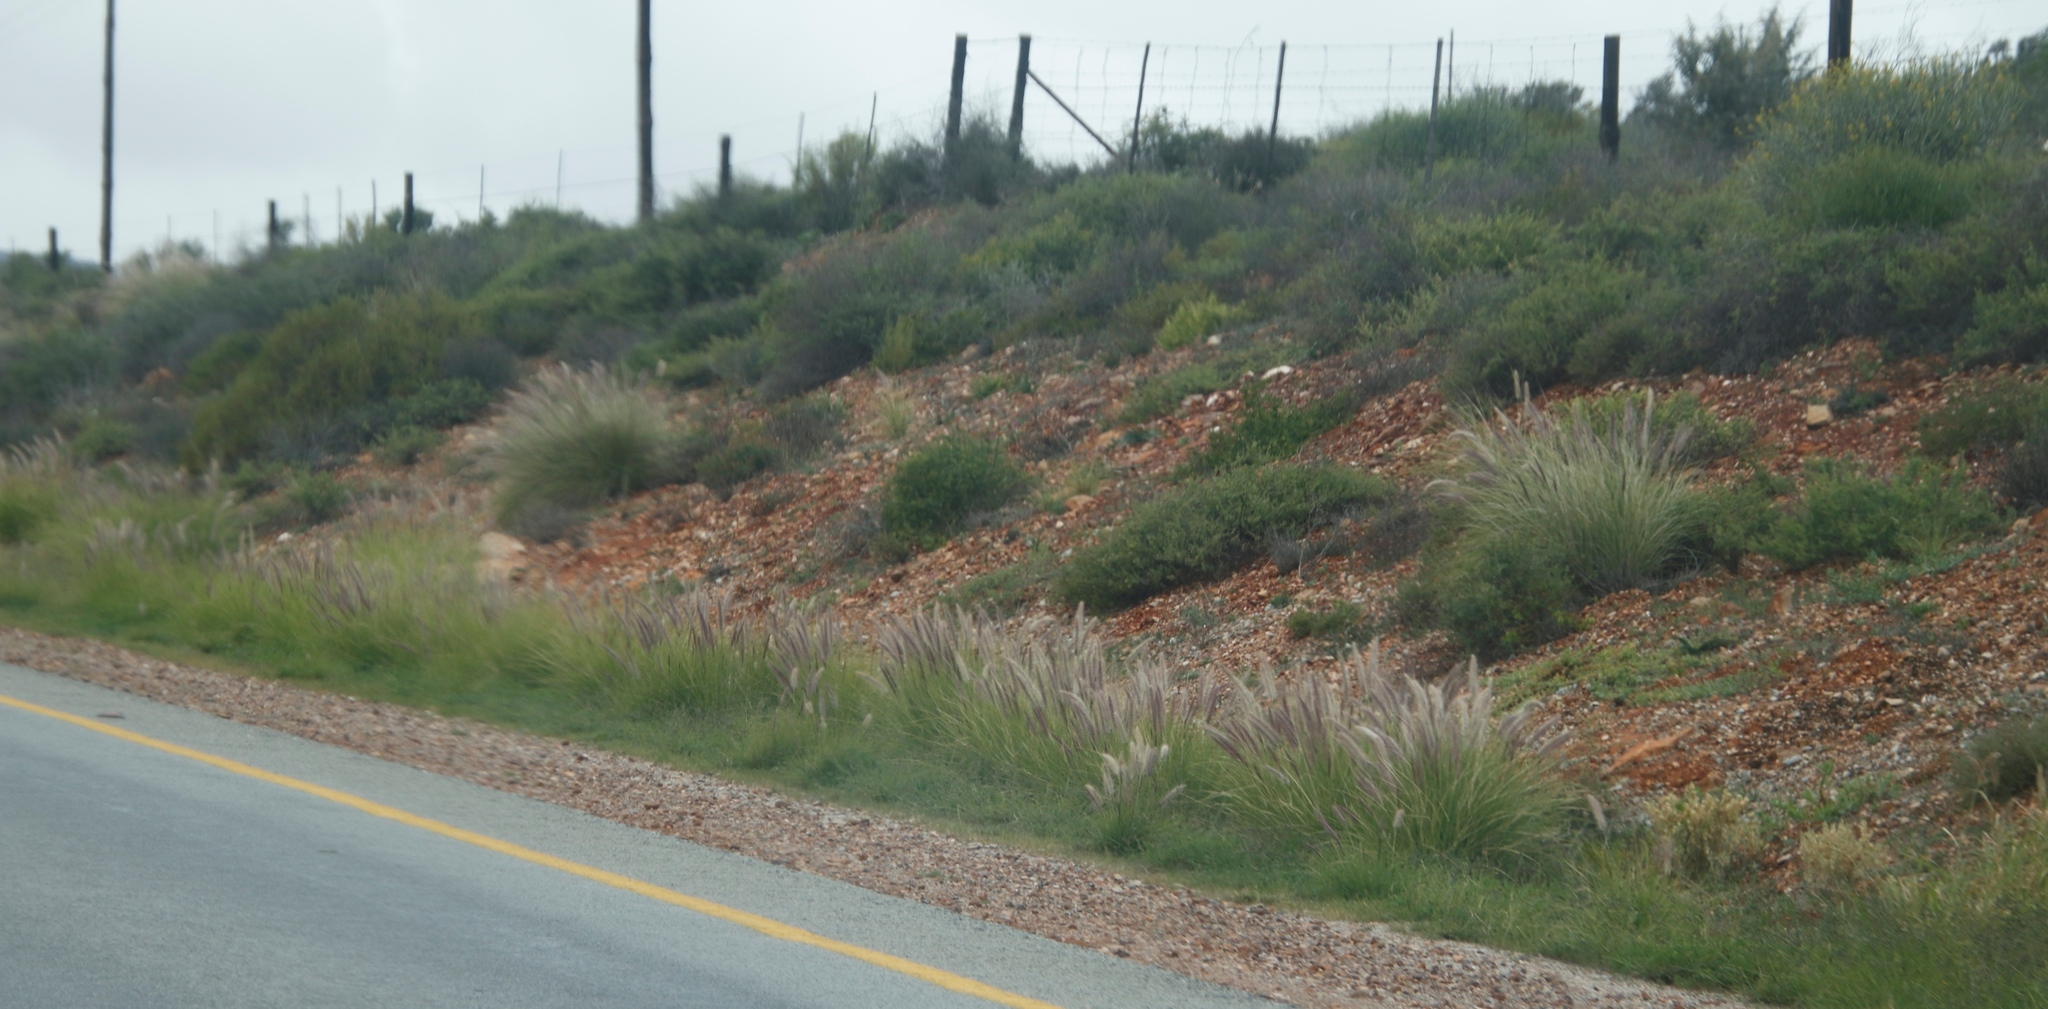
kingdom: Plantae
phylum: Tracheophyta
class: Liliopsida
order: Poales
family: Poaceae
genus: Cenchrus
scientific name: Cenchrus setaceus
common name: Crimson fountaingrass
